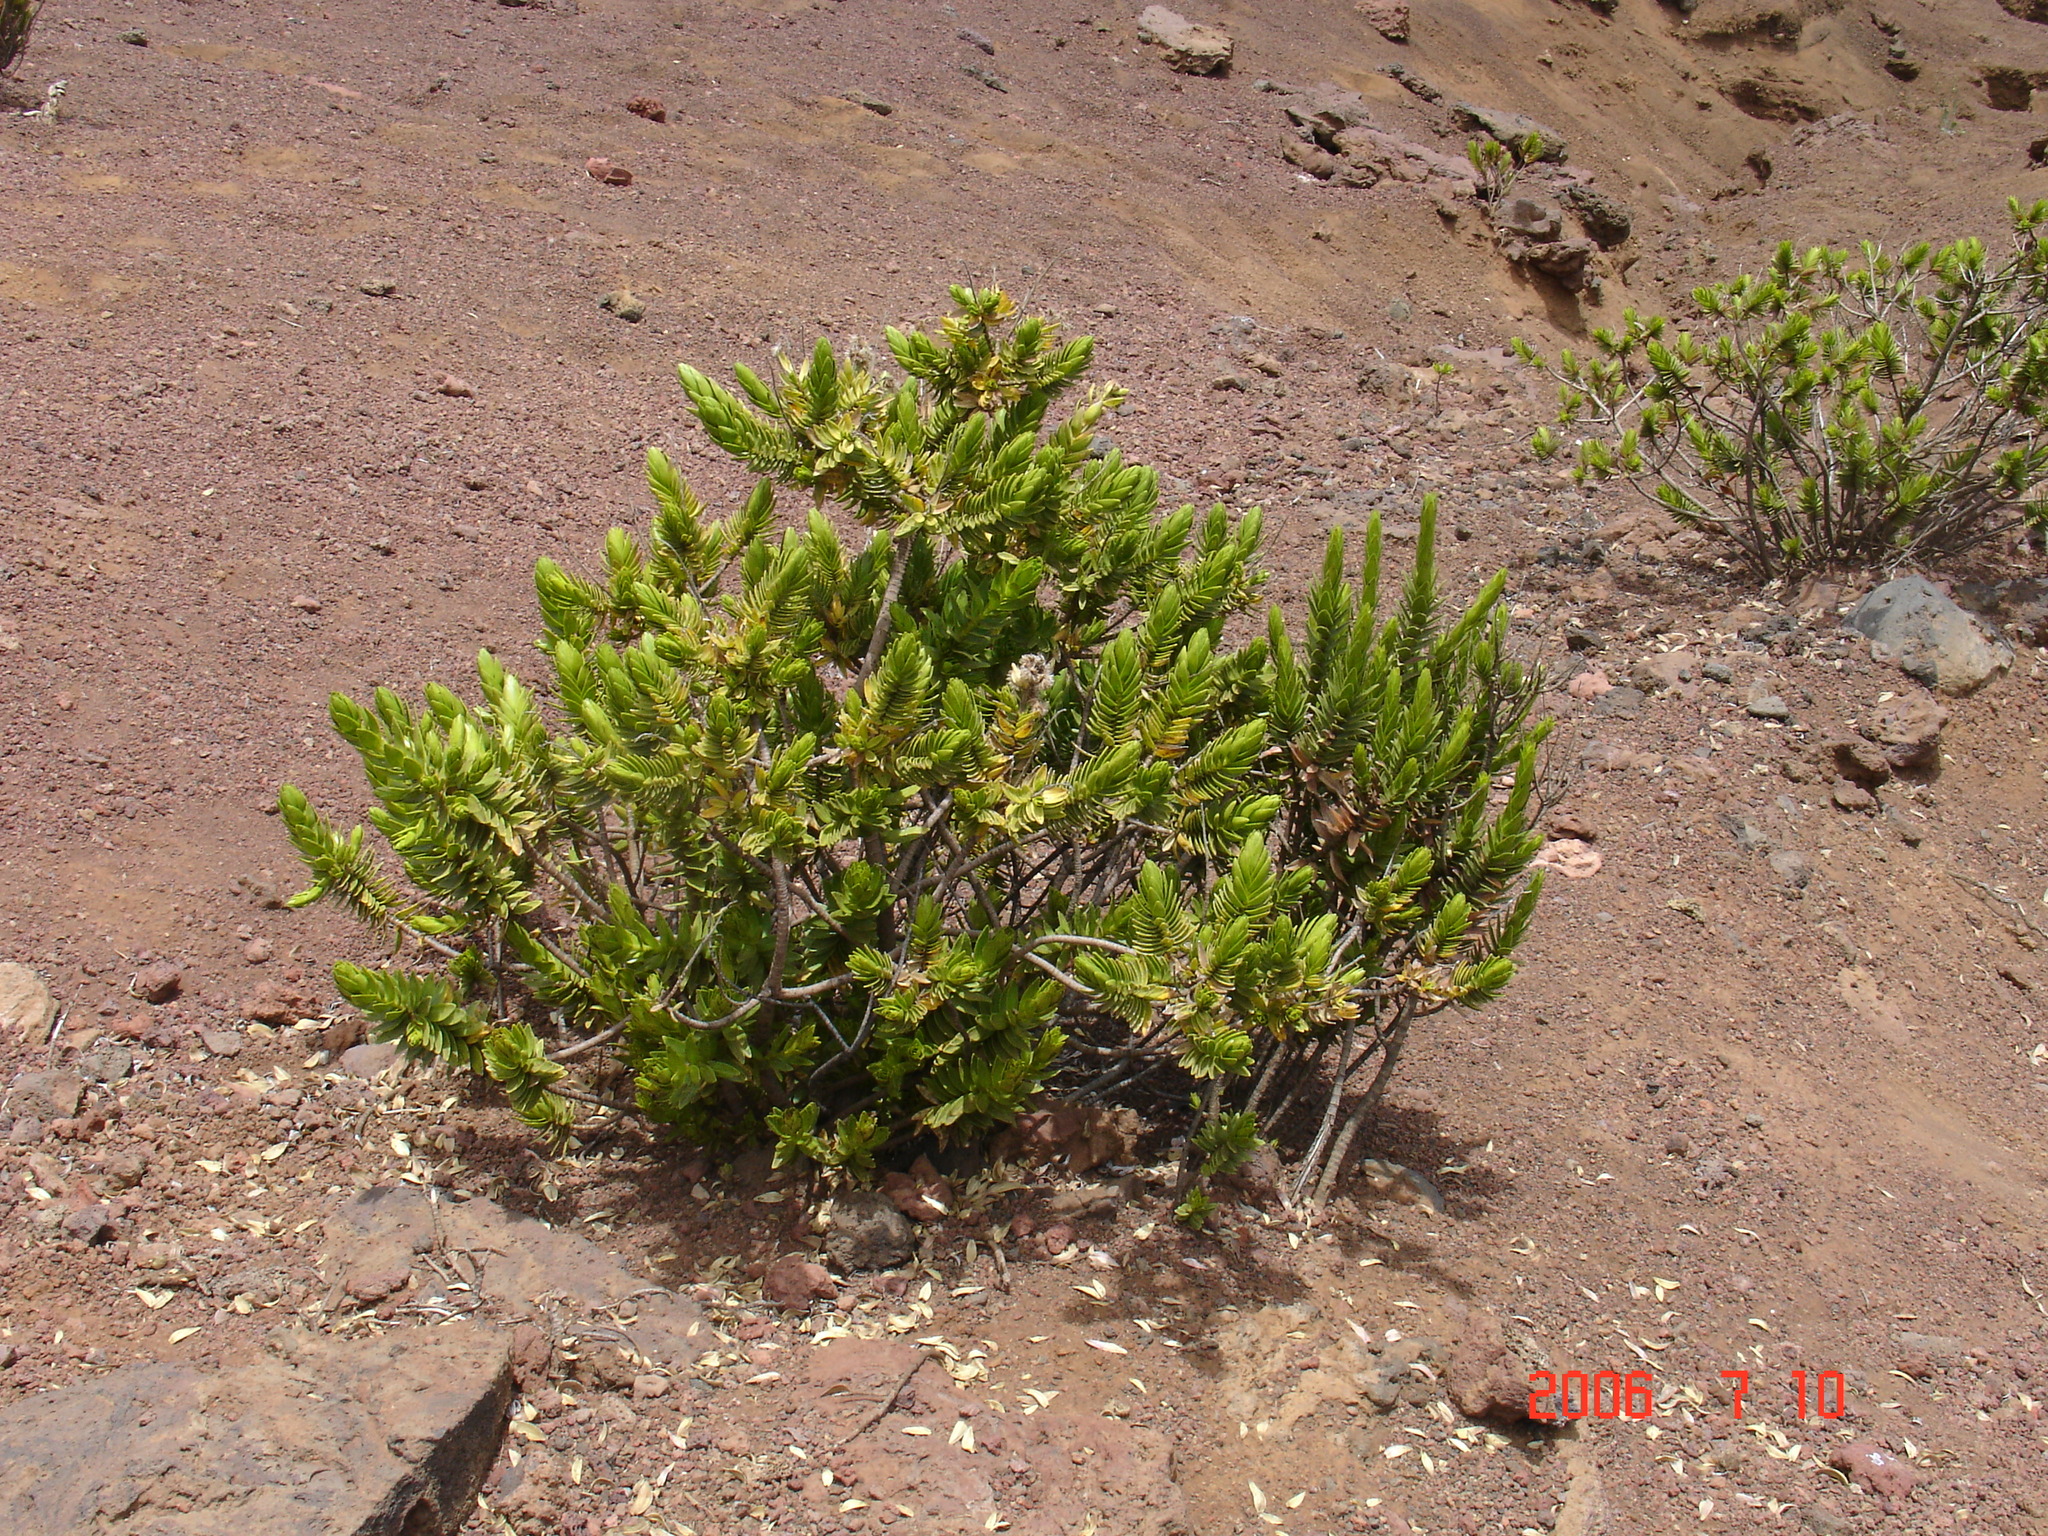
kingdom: Plantae
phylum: Tracheophyta
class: Magnoliopsida
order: Asterales
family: Asteraceae
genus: Dubautia
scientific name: Dubautia menziesii
